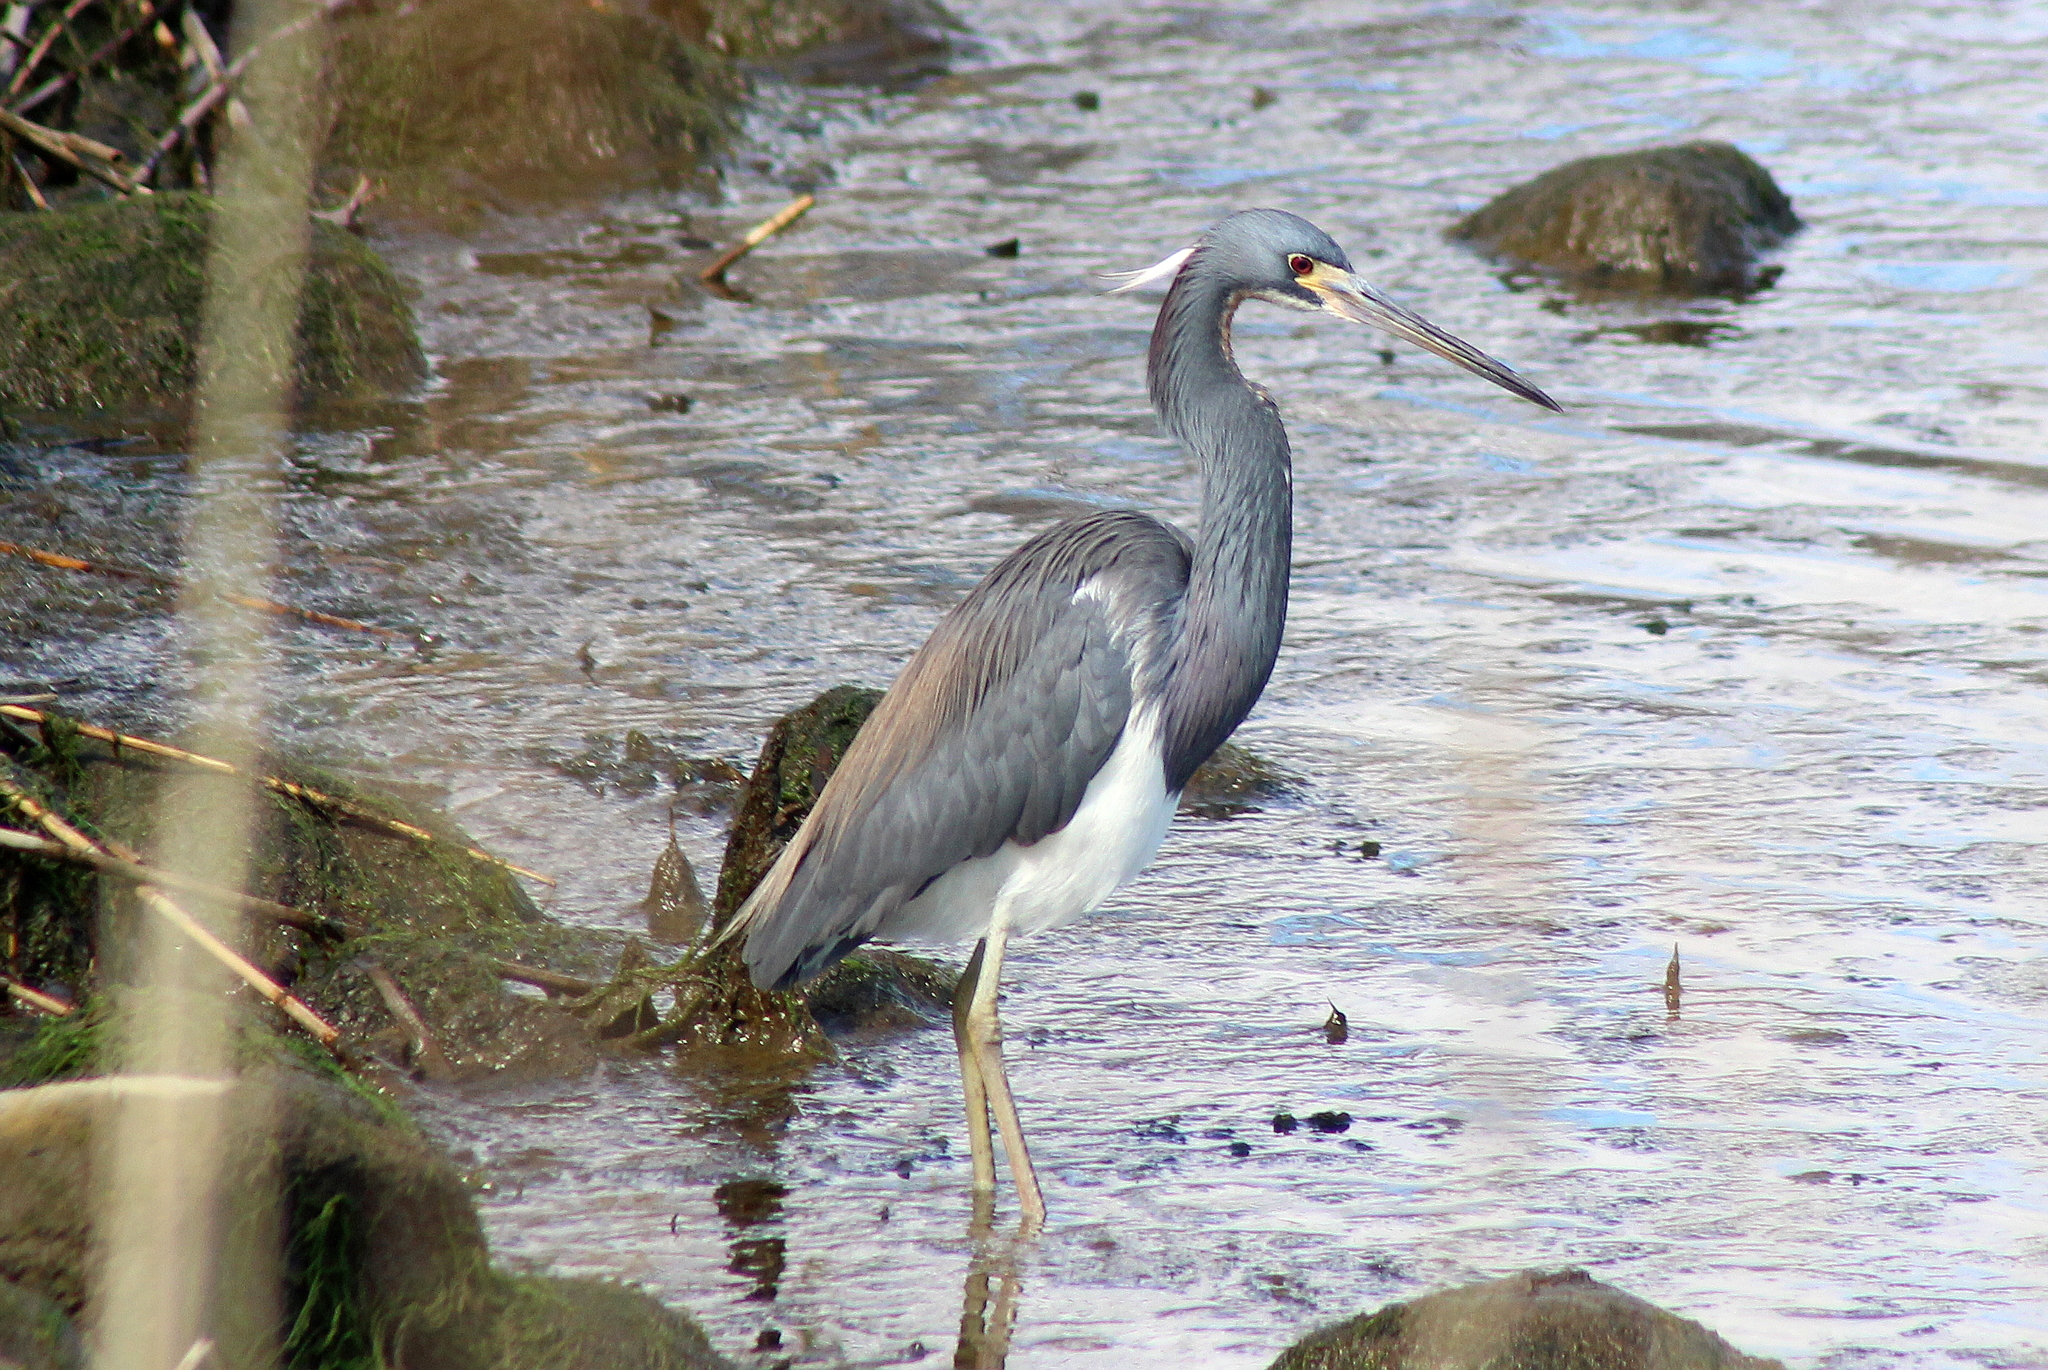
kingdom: Animalia
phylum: Chordata
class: Aves
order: Pelecaniformes
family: Ardeidae
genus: Egretta
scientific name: Egretta tricolor
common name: Tricolored heron
